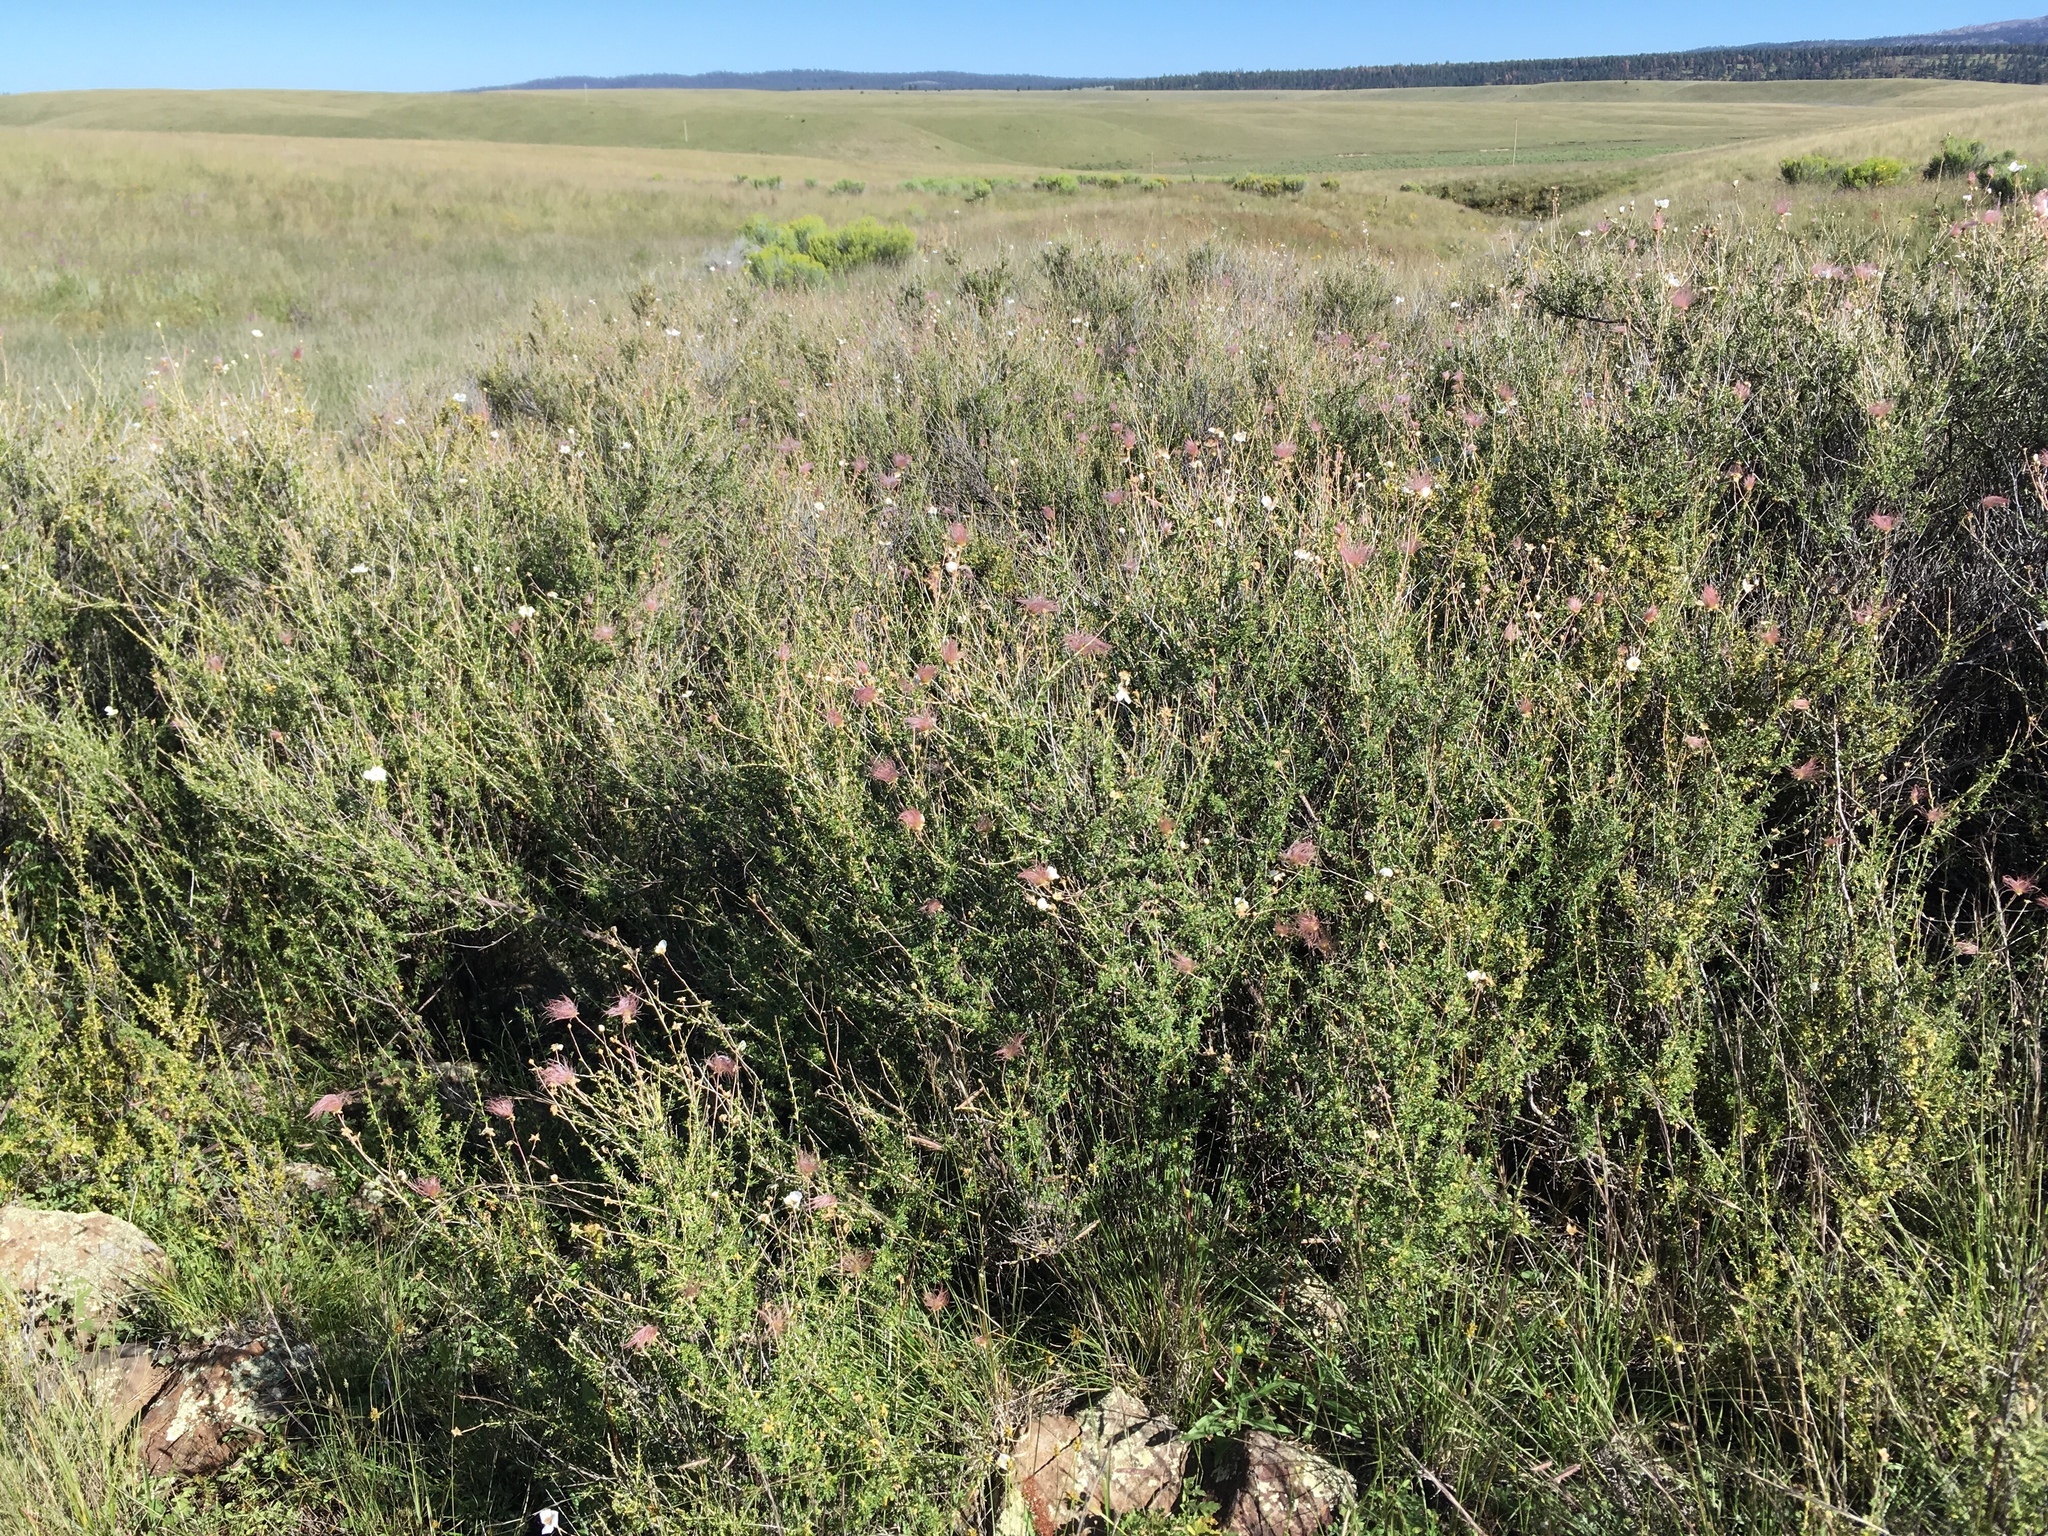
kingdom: Plantae
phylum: Tracheophyta
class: Magnoliopsida
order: Rosales
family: Rosaceae
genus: Fallugia
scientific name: Fallugia paradoxa
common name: Apache-plume
